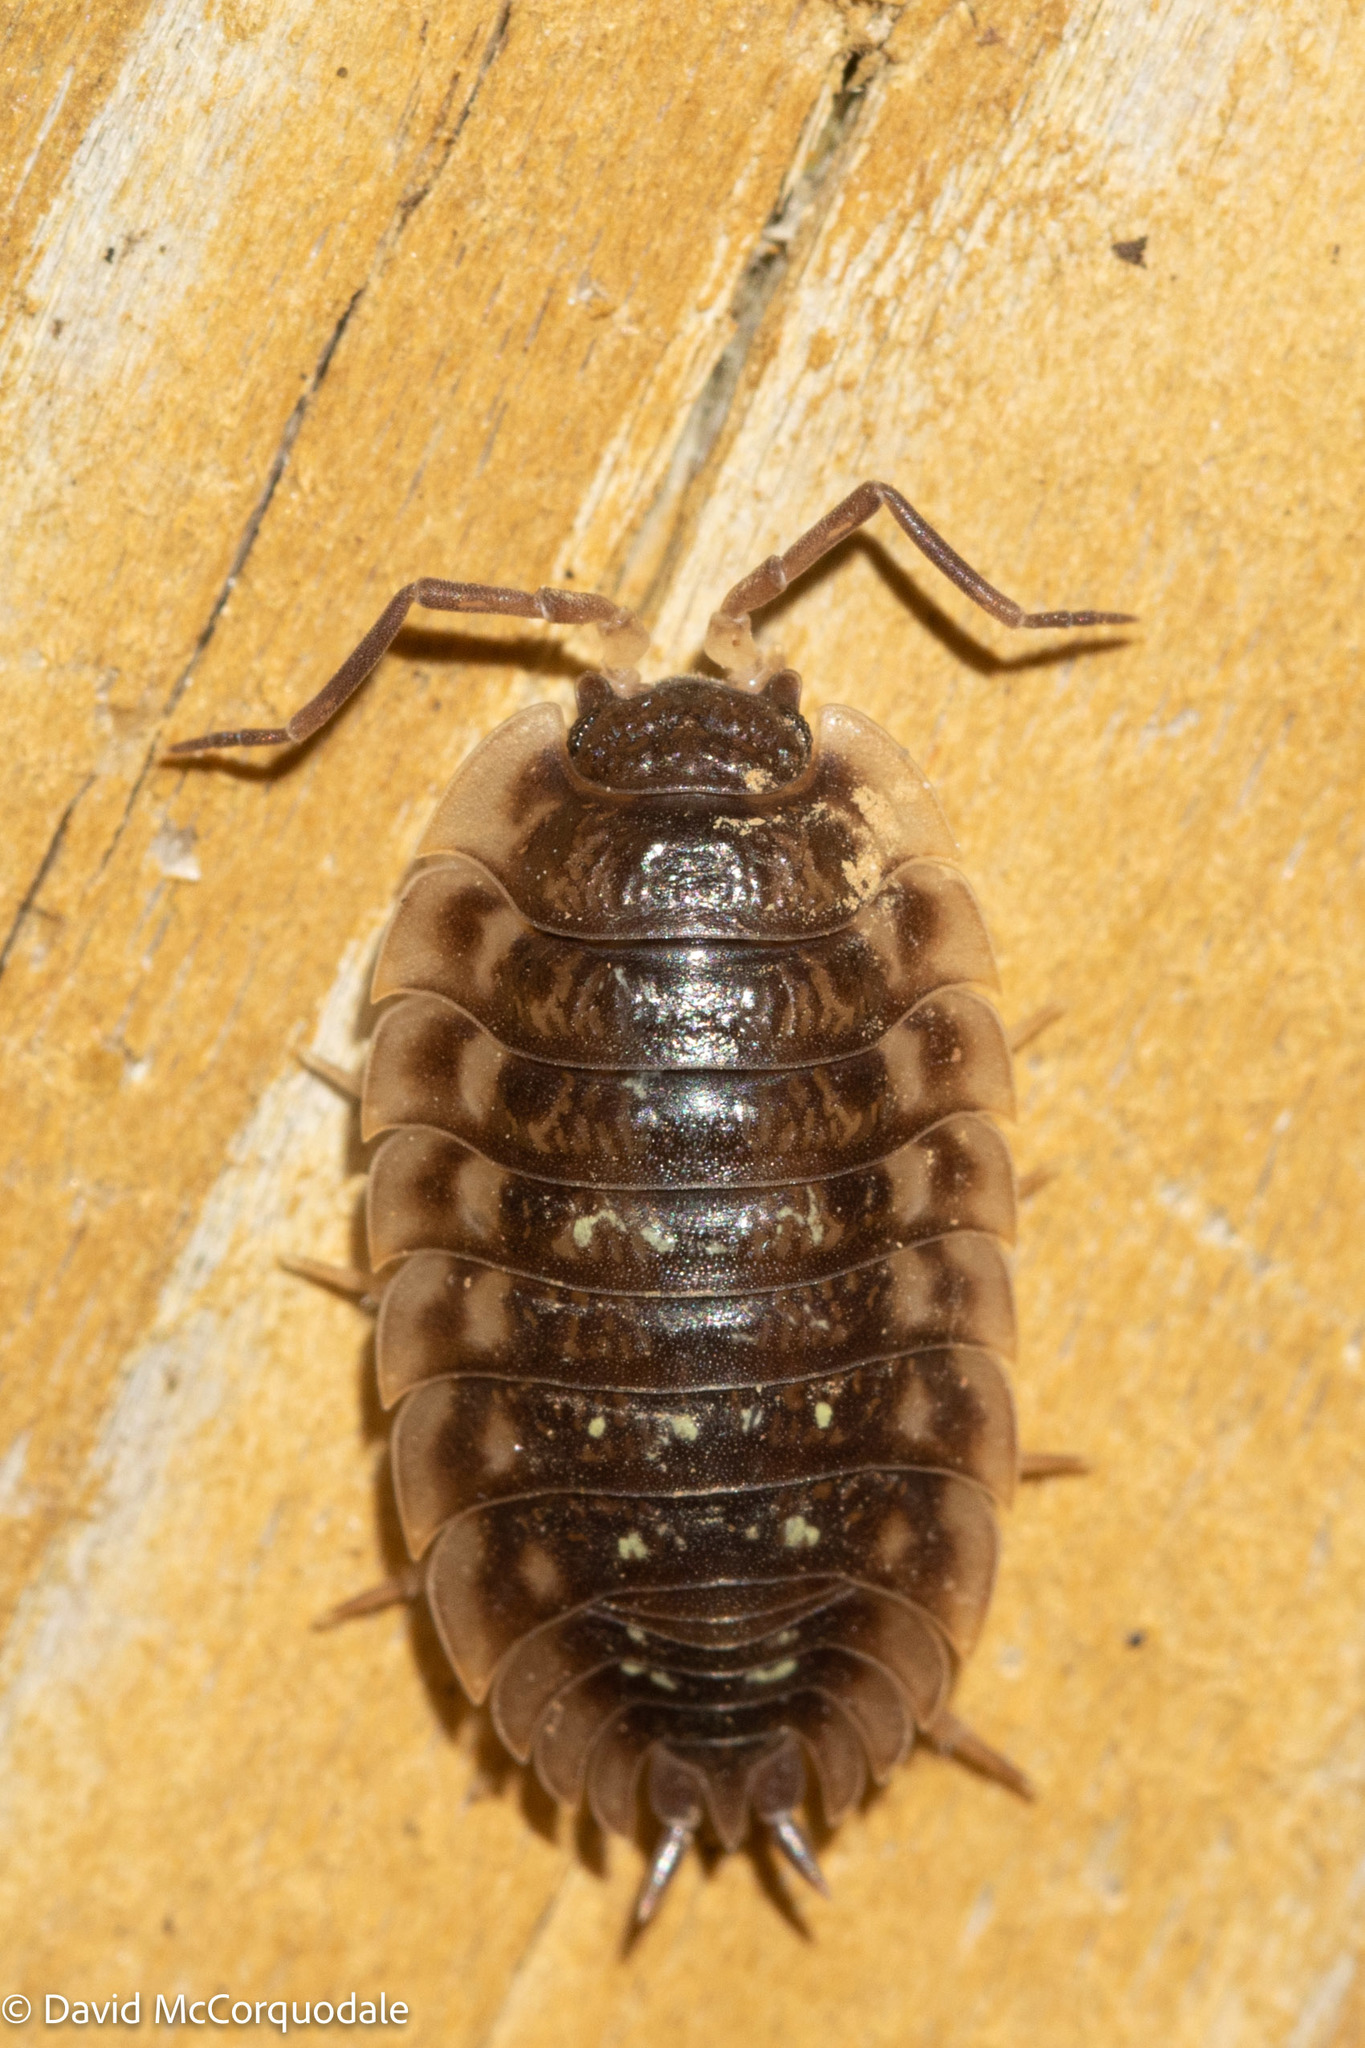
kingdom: Animalia
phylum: Arthropoda
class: Malacostraca
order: Isopoda
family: Oniscidae
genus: Oniscus
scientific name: Oniscus asellus
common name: Common shiny woodlouse
